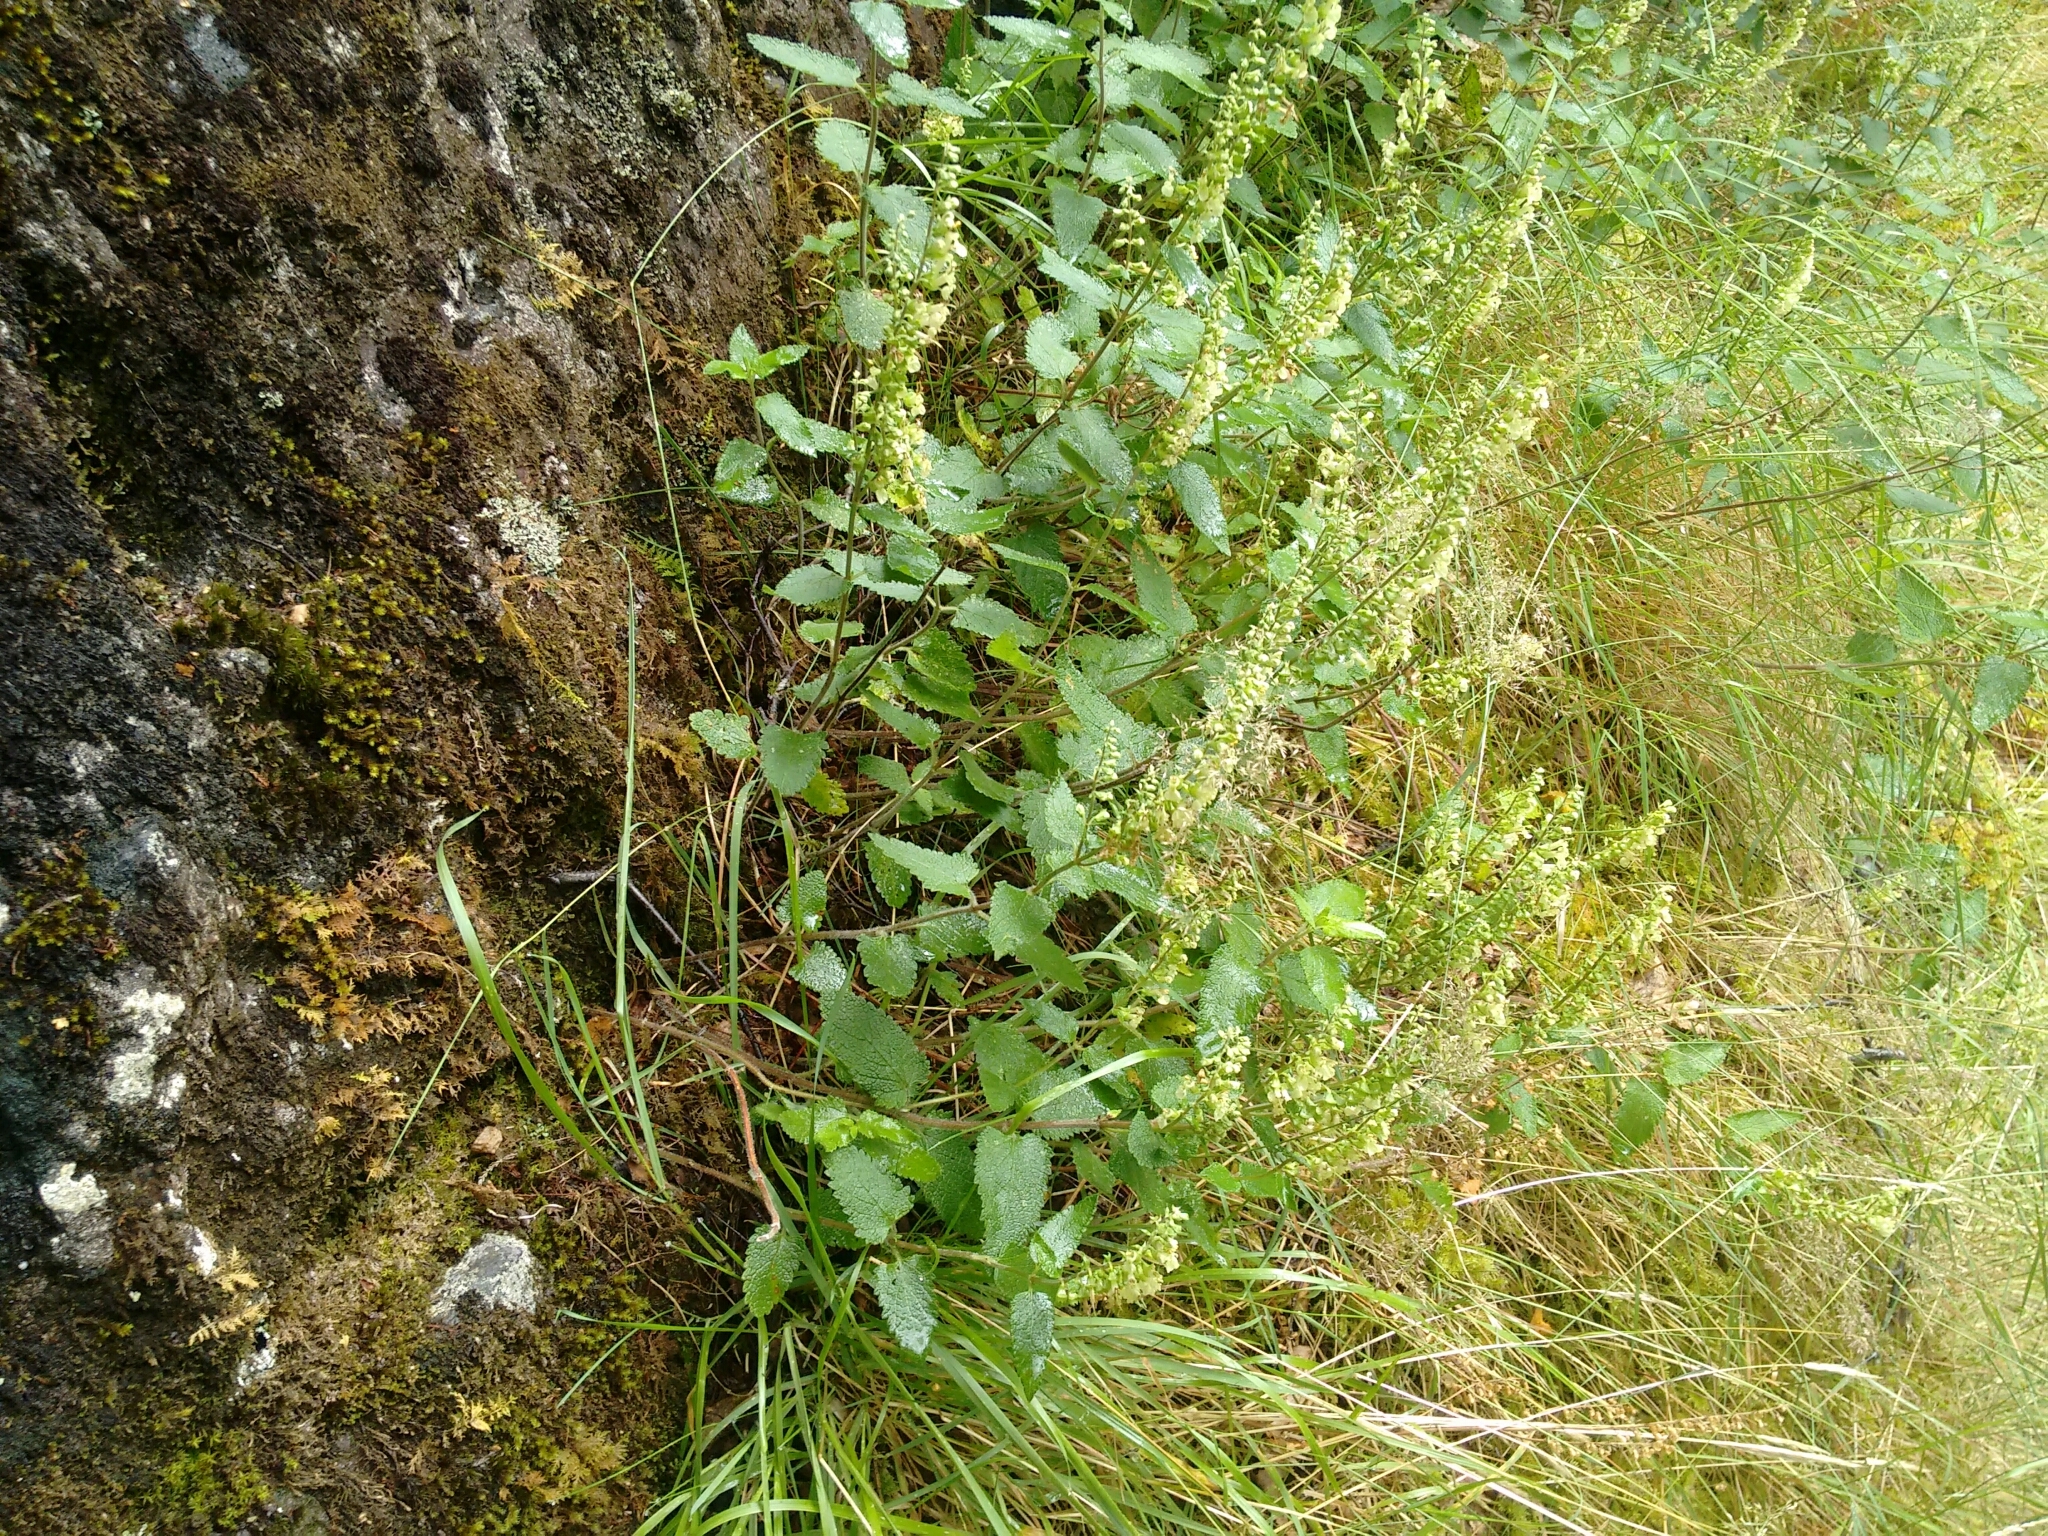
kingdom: Plantae
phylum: Tracheophyta
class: Magnoliopsida
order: Lamiales
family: Lamiaceae
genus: Teucrium
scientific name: Teucrium scorodonia
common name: Woodland germander
